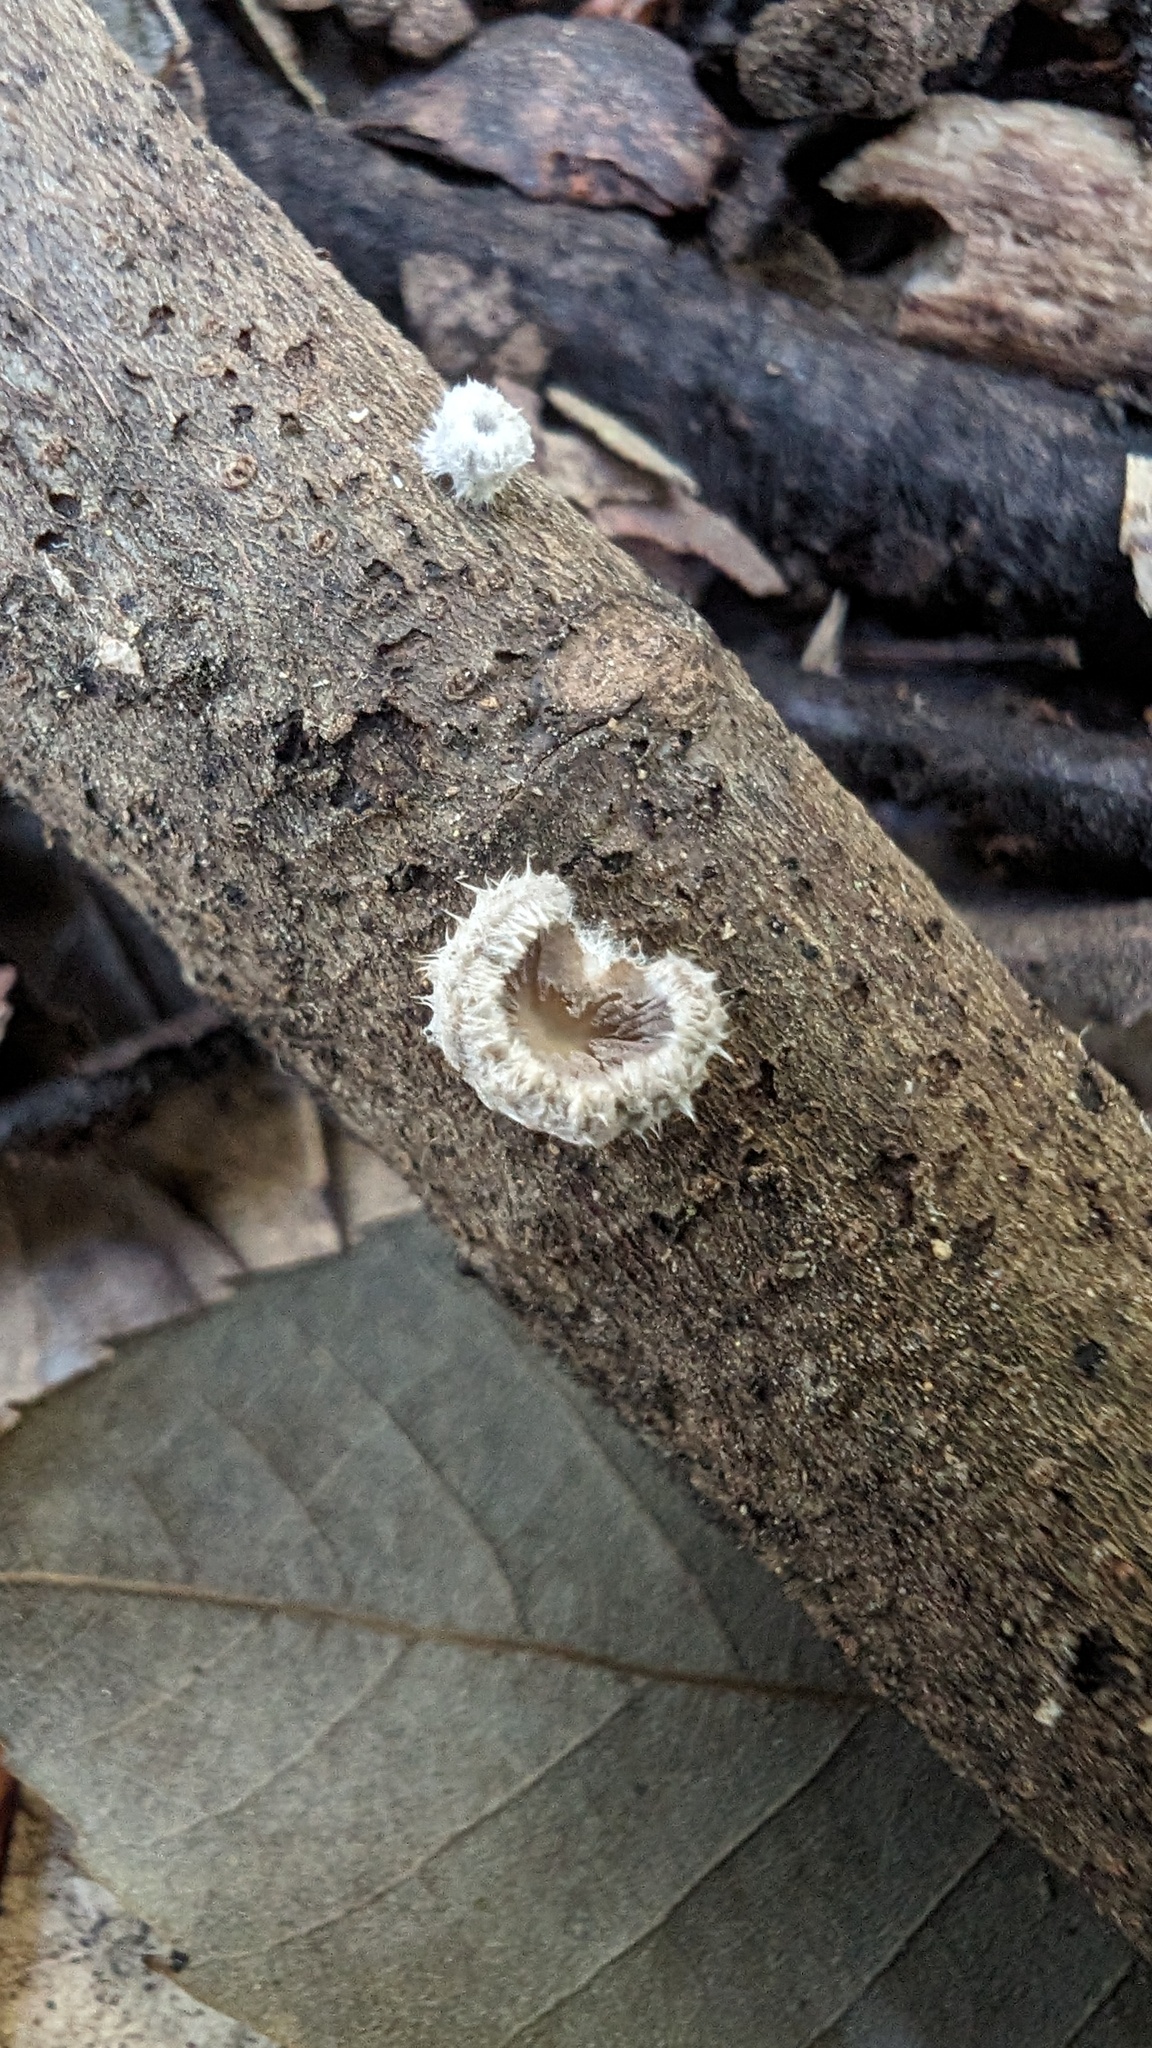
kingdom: Fungi
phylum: Basidiomycota
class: Agaricomycetes
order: Agaricales
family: Schizophyllaceae
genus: Schizophyllum
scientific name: Schizophyllum commune
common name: Common porecrust
